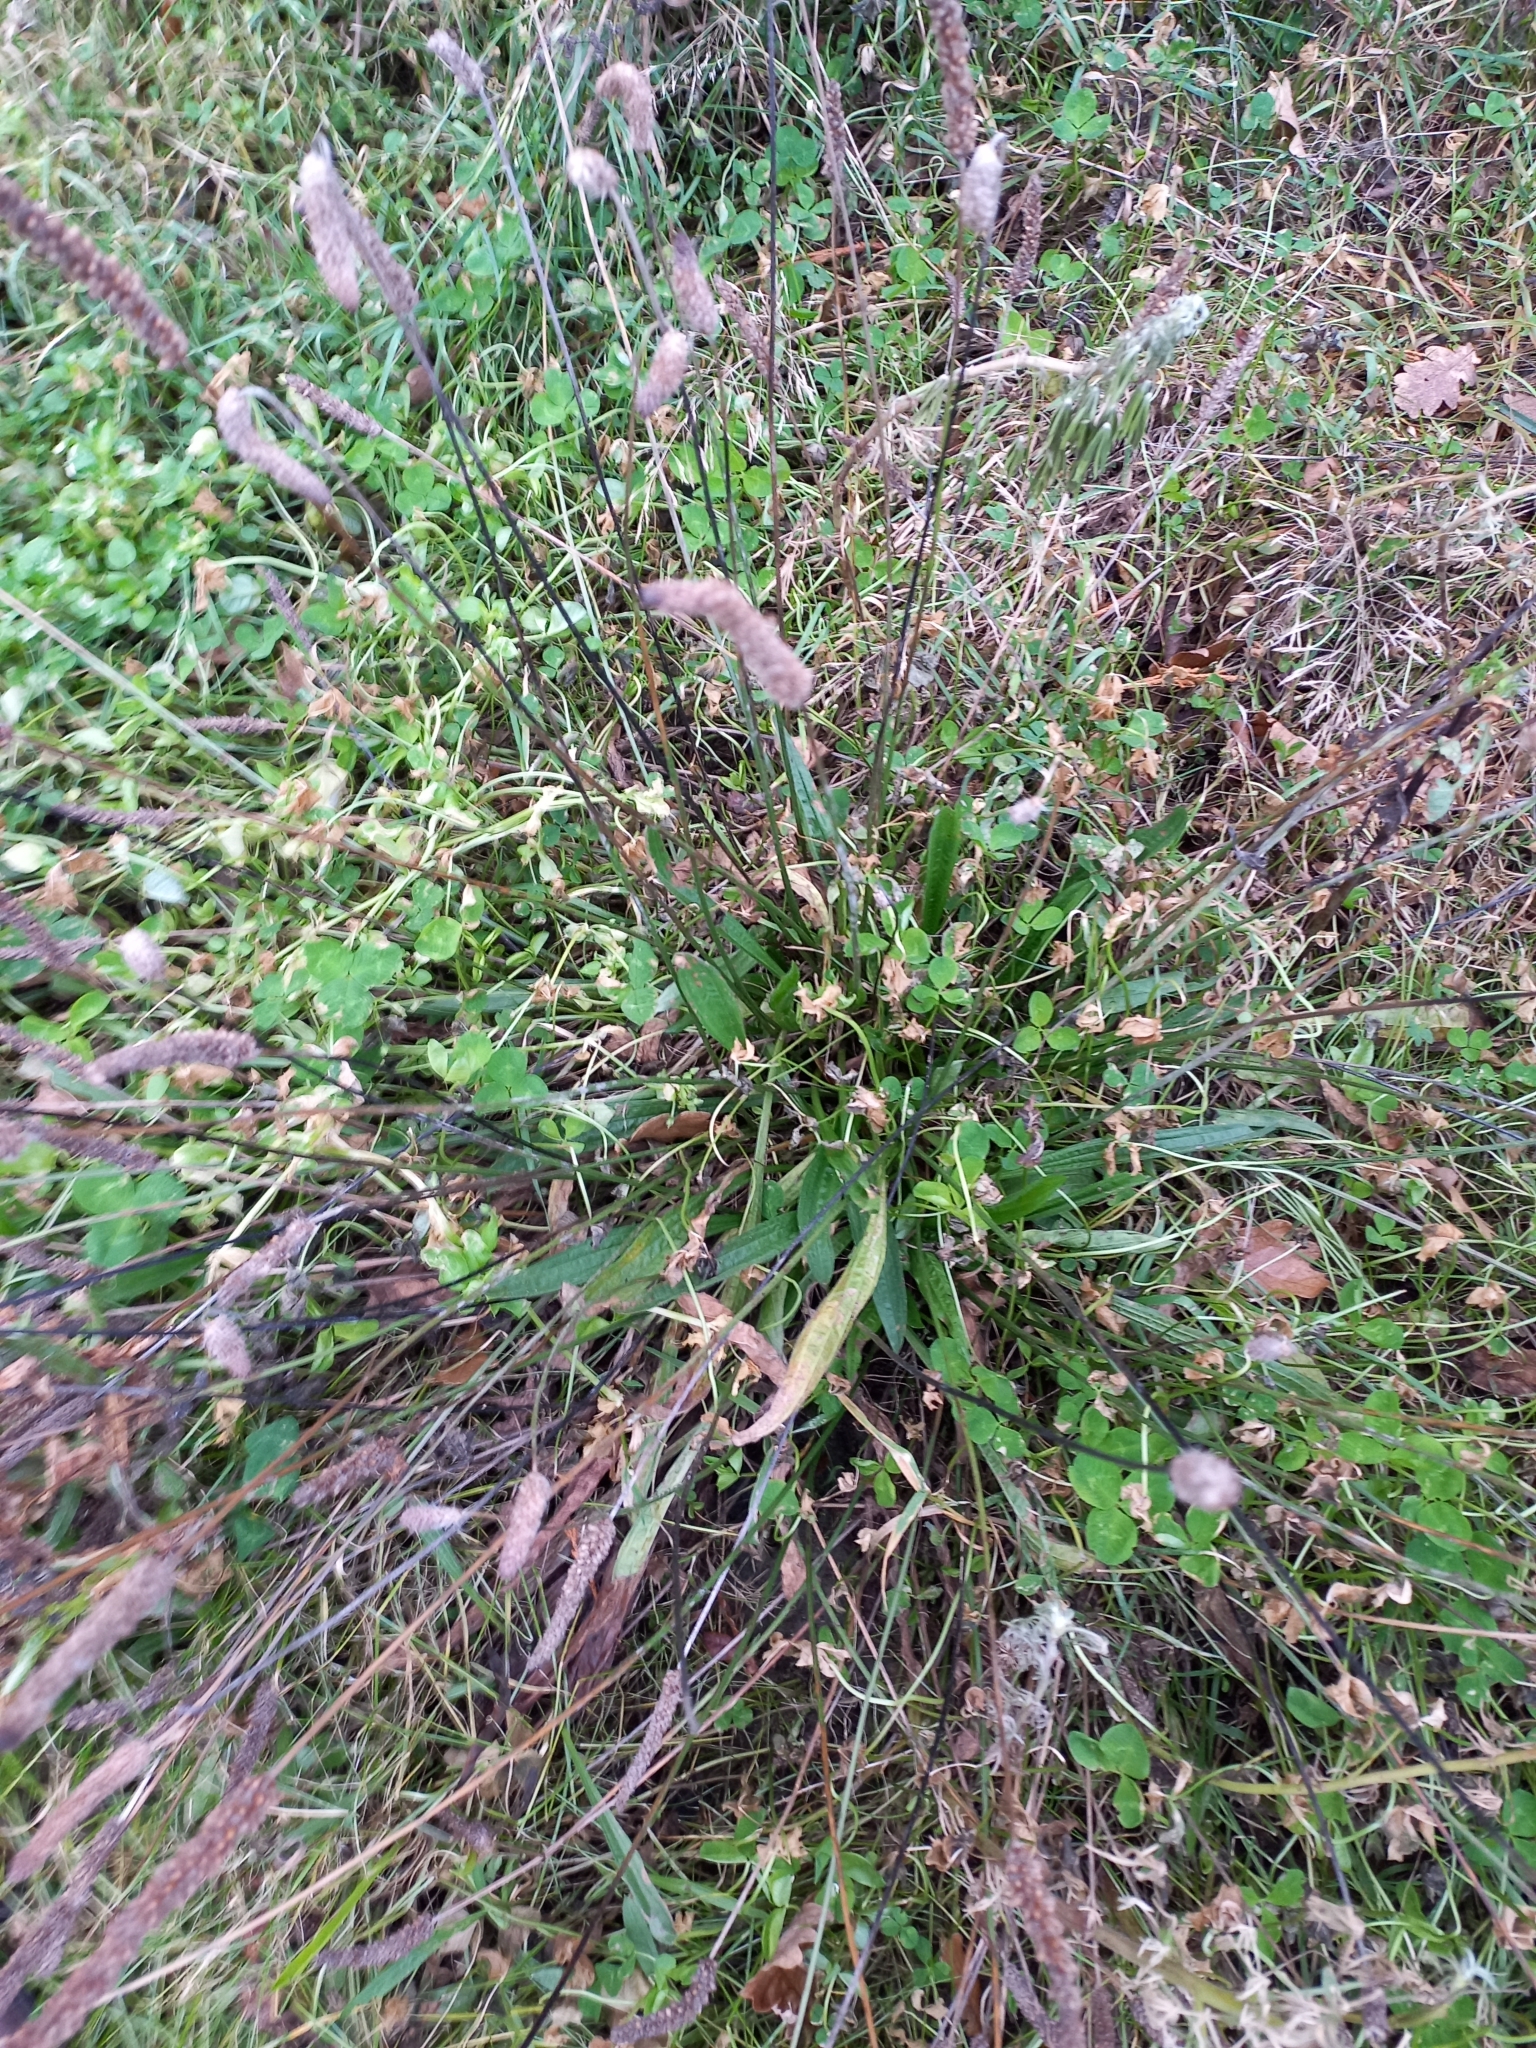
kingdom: Plantae
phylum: Tracheophyta
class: Magnoliopsida
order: Lamiales
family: Plantaginaceae
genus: Plantago
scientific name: Plantago lanceolata
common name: Ribwort plantain
